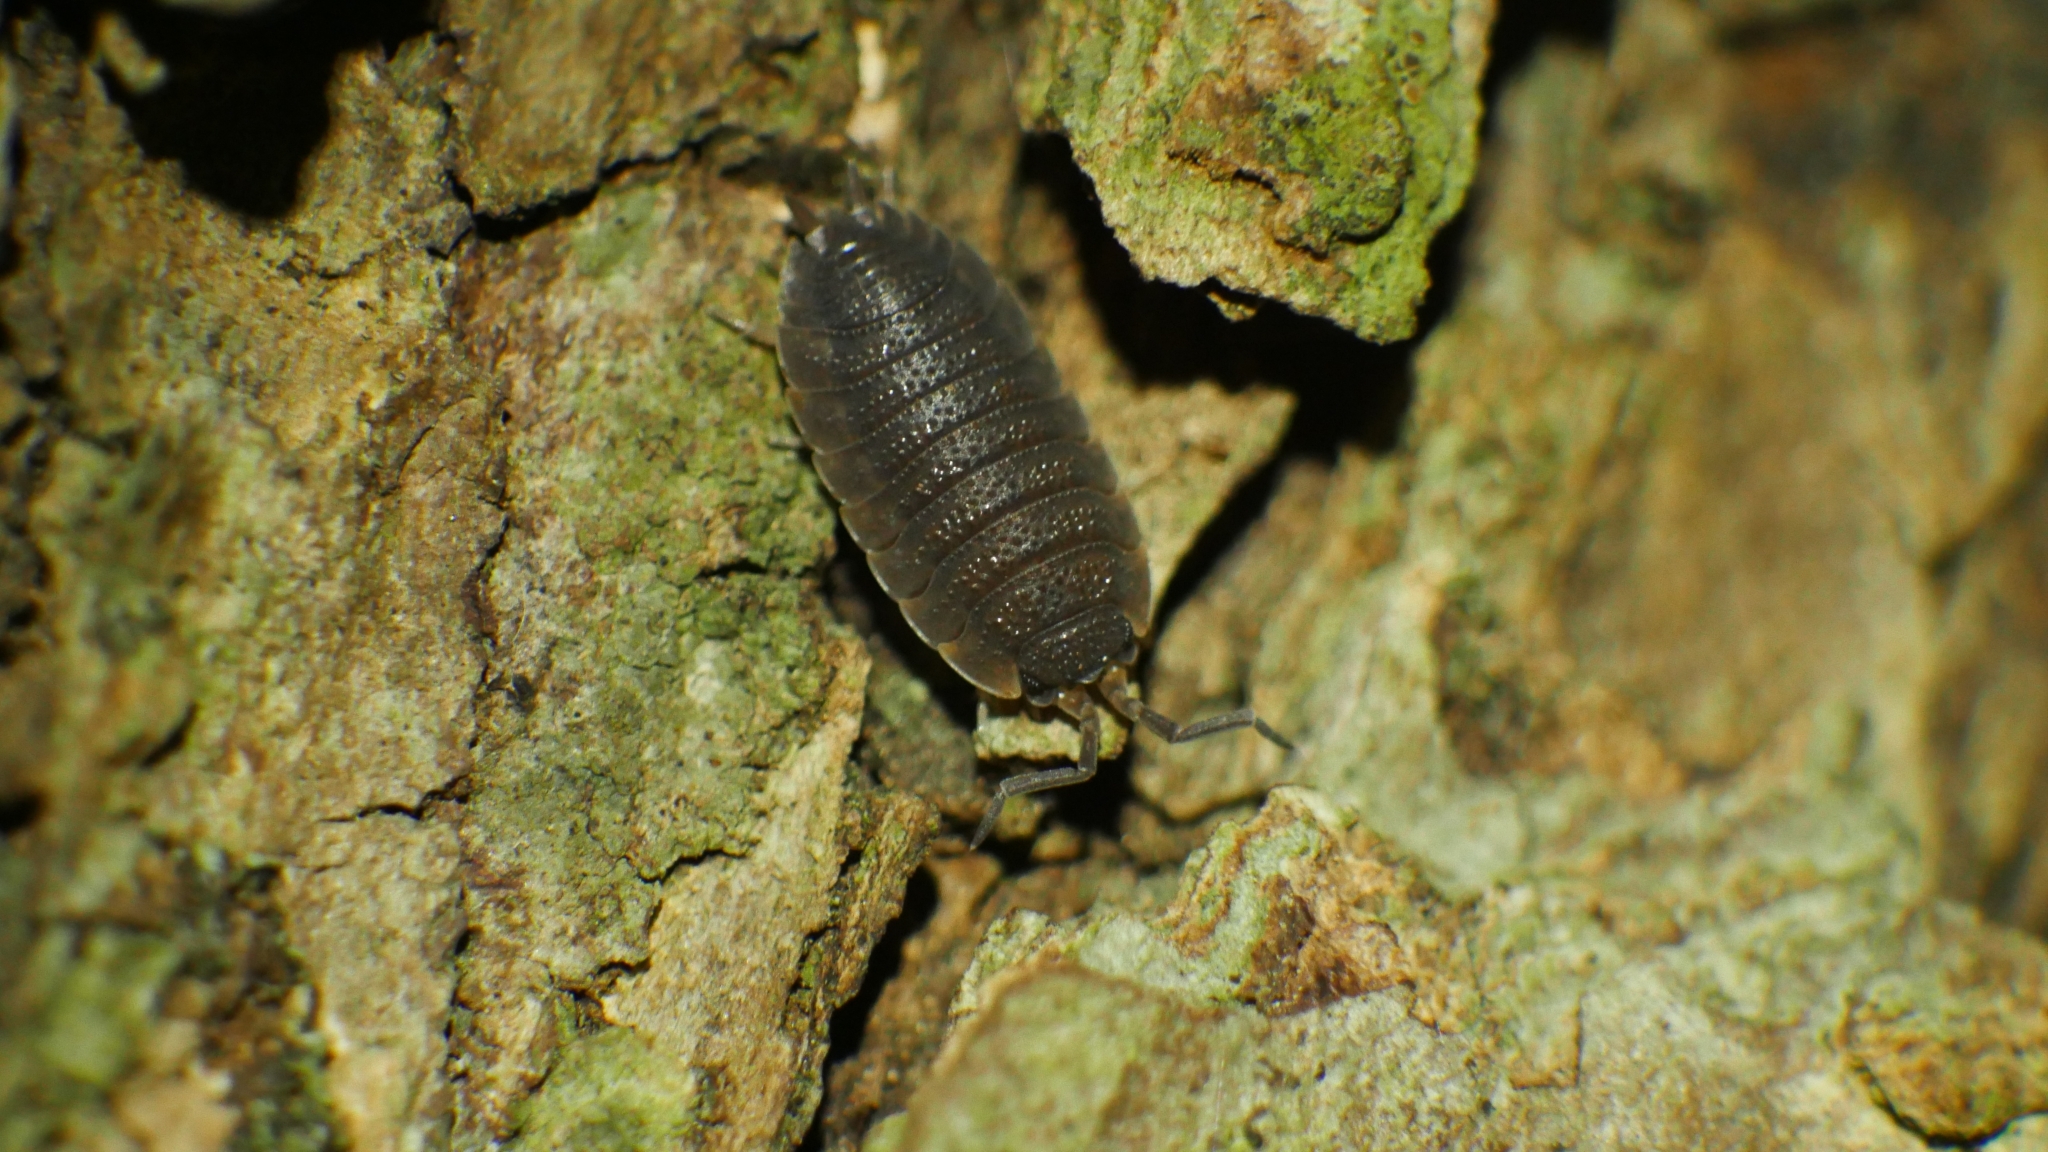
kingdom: Animalia
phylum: Arthropoda
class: Malacostraca
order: Isopoda
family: Porcellionidae
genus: Porcellio
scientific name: Porcellio scaber
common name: Common rough woodlouse
